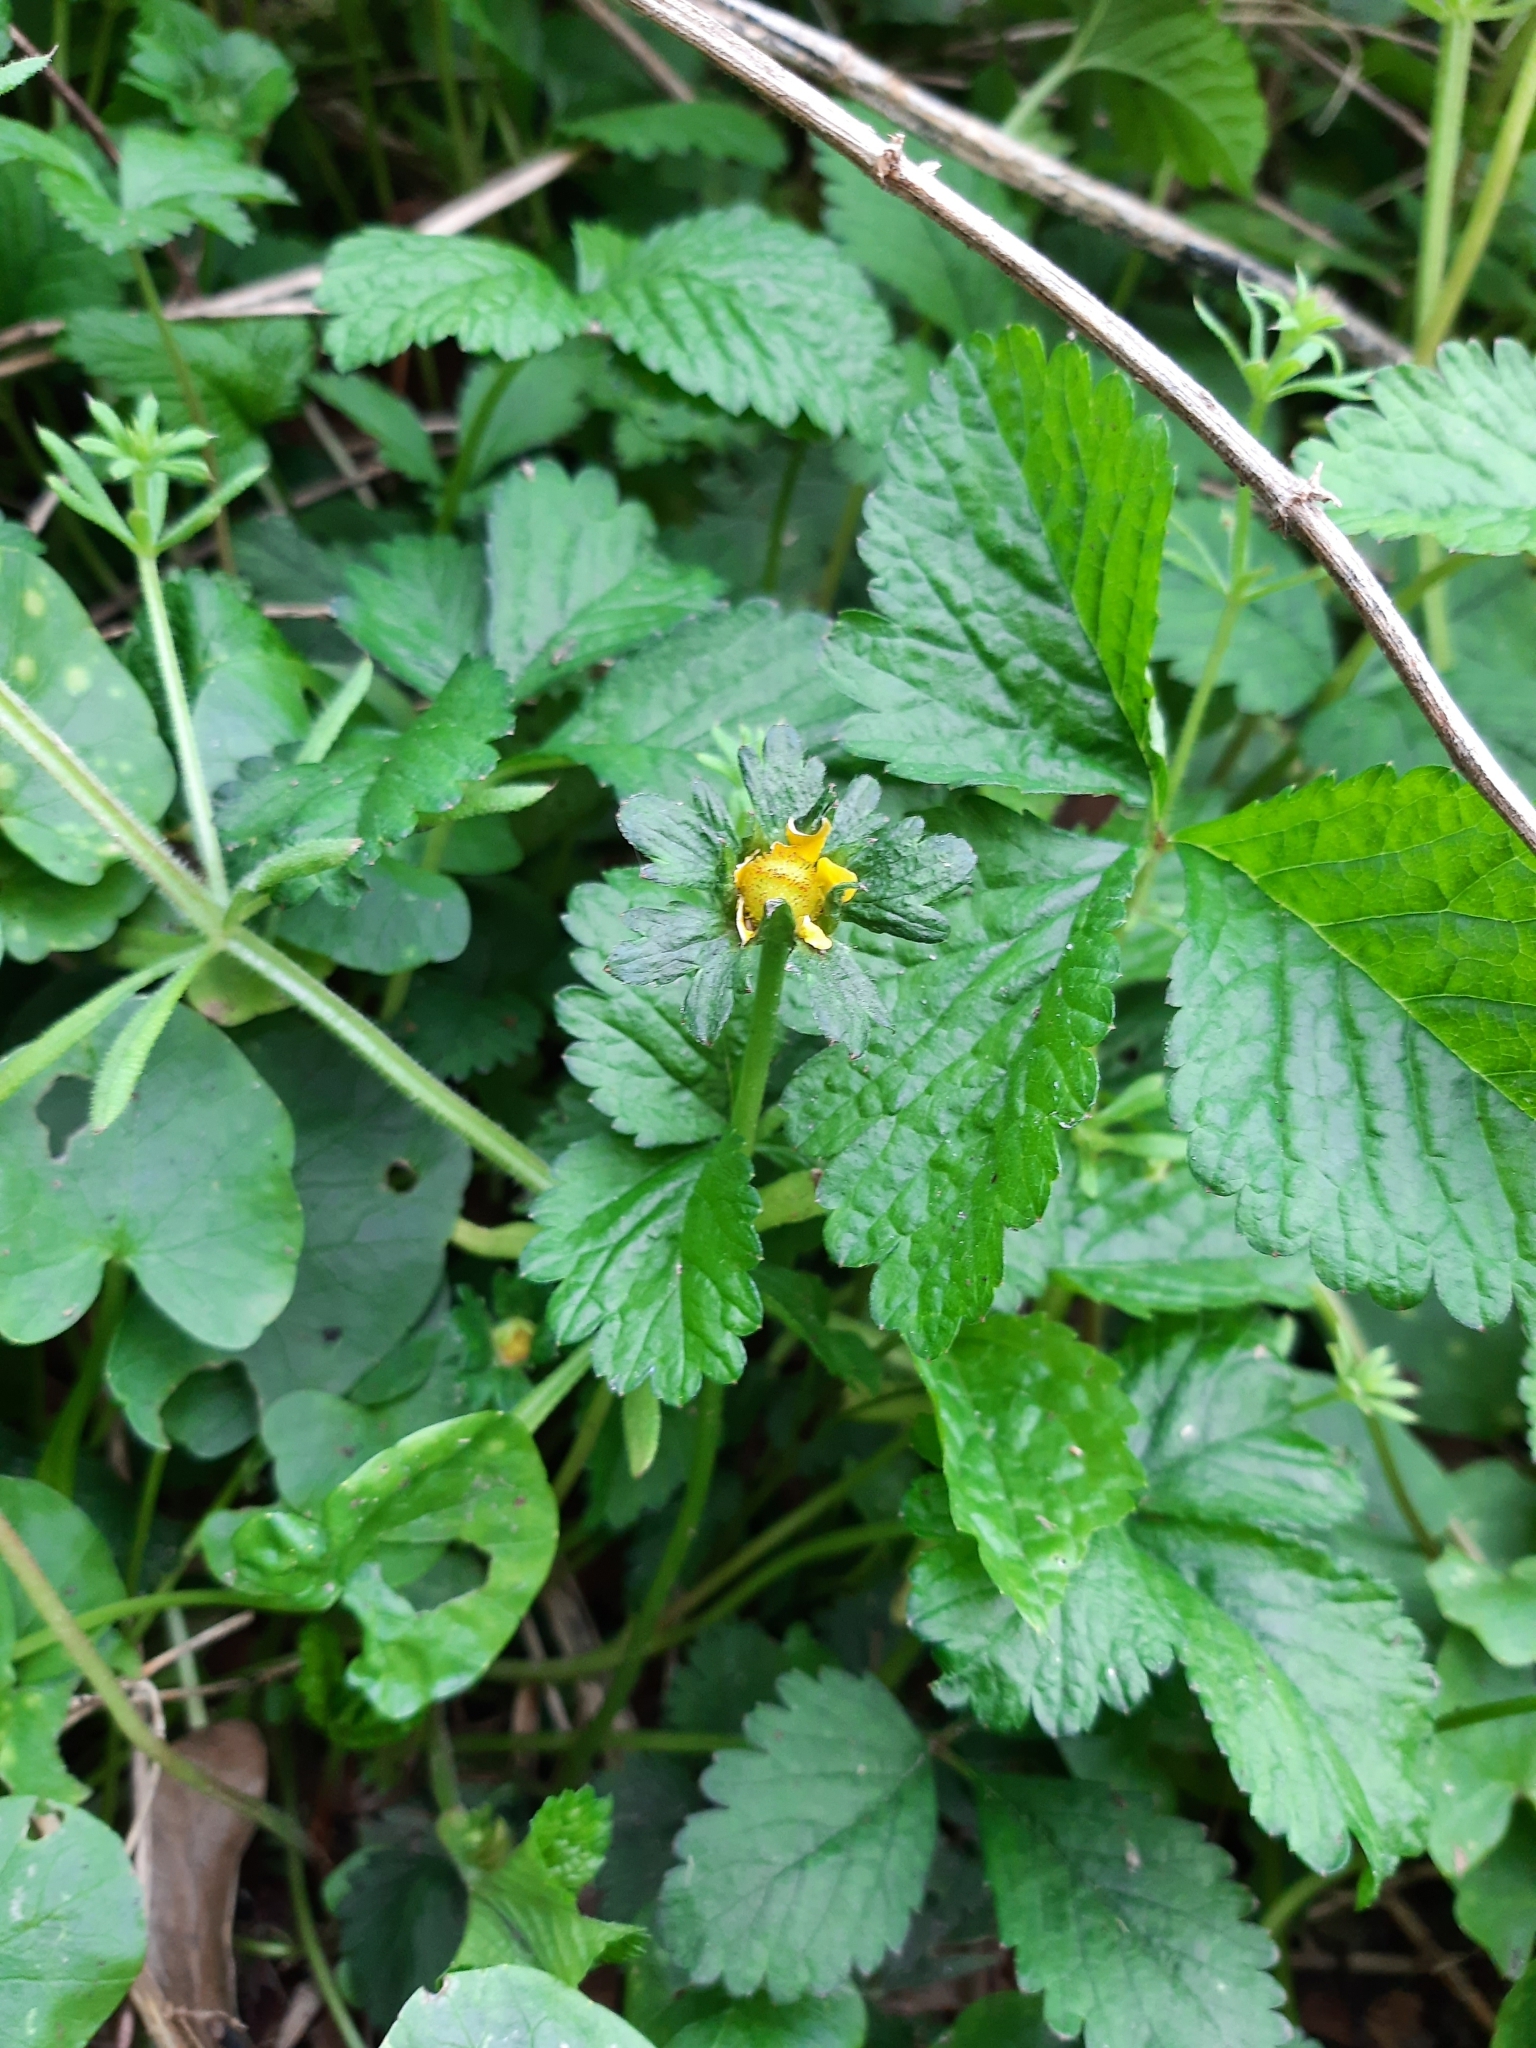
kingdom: Plantae
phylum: Tracheophyta
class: Magnoliopsida
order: Rosales
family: Rosaceae
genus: Potentilla
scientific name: Potentilla indica
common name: Yellow-flowered strawberry
